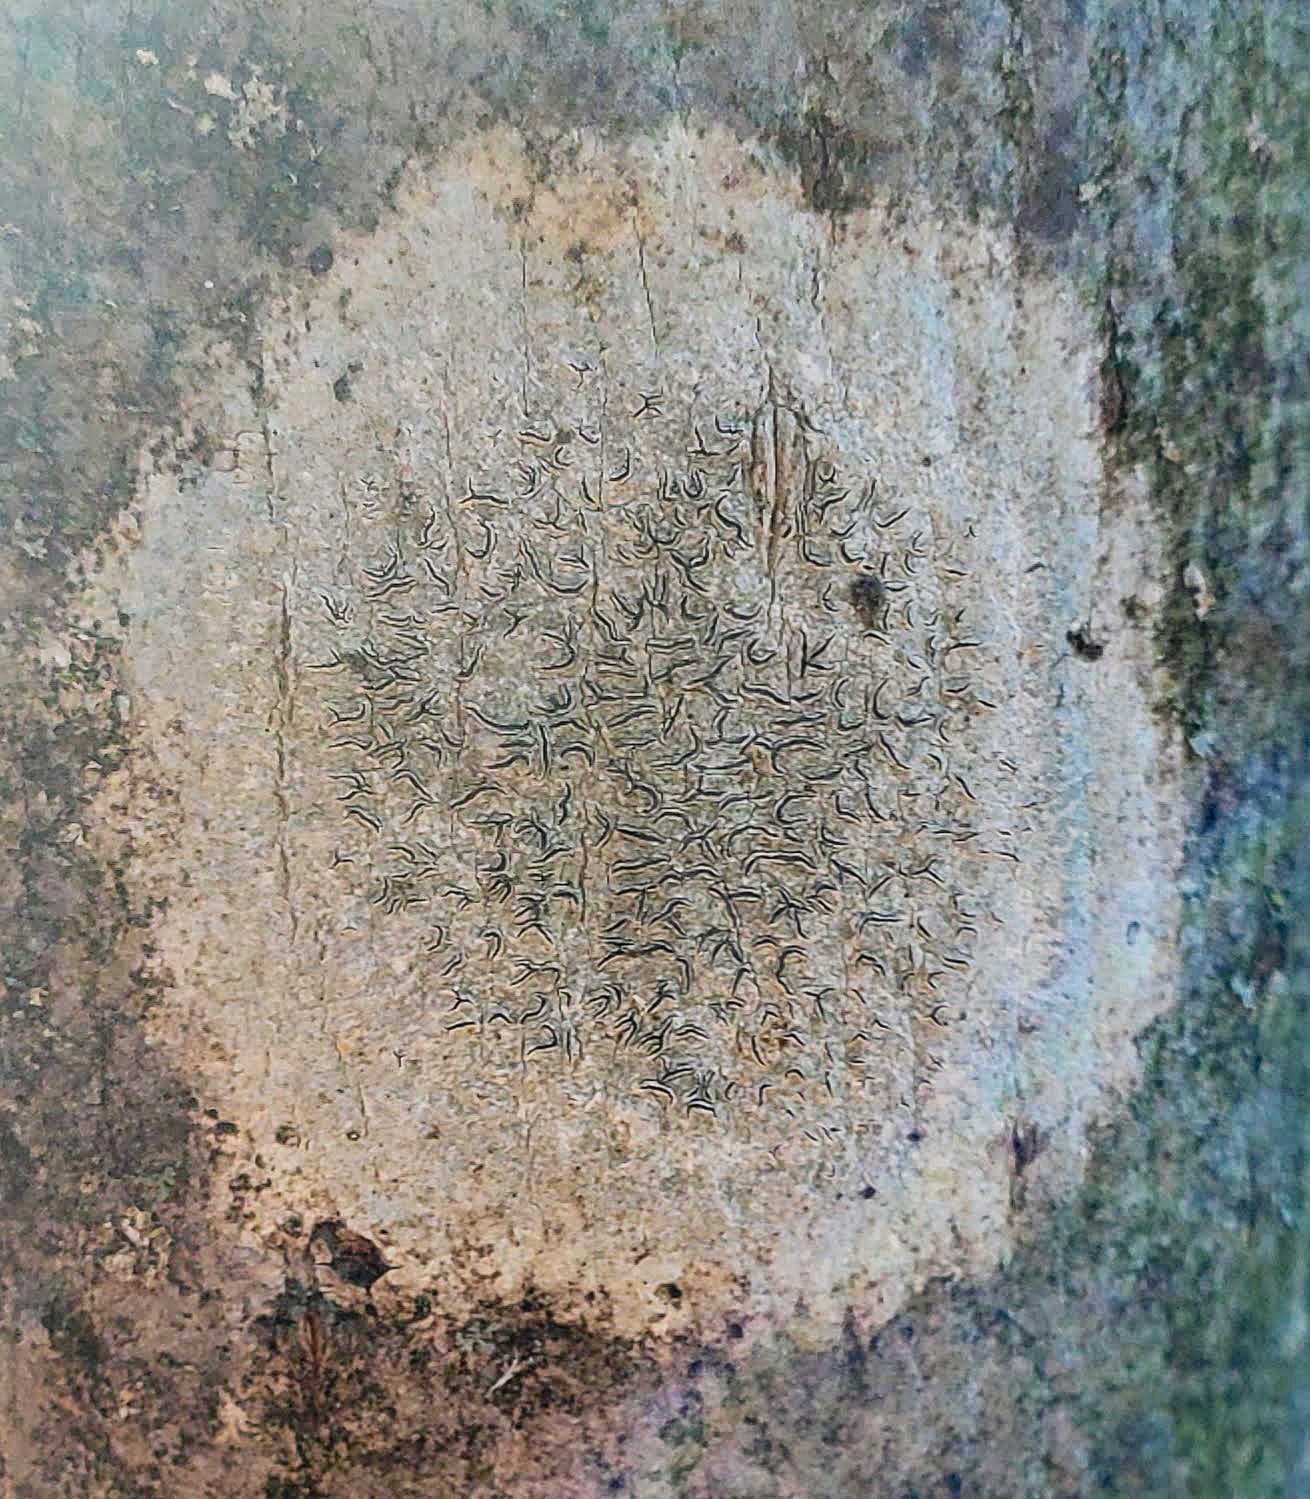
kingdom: Fungi
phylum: Ascomycota
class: Lecanoromycetes
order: Ostropales
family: Graphidaceae
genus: Graphis
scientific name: Graphis scripta
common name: Script lichen
